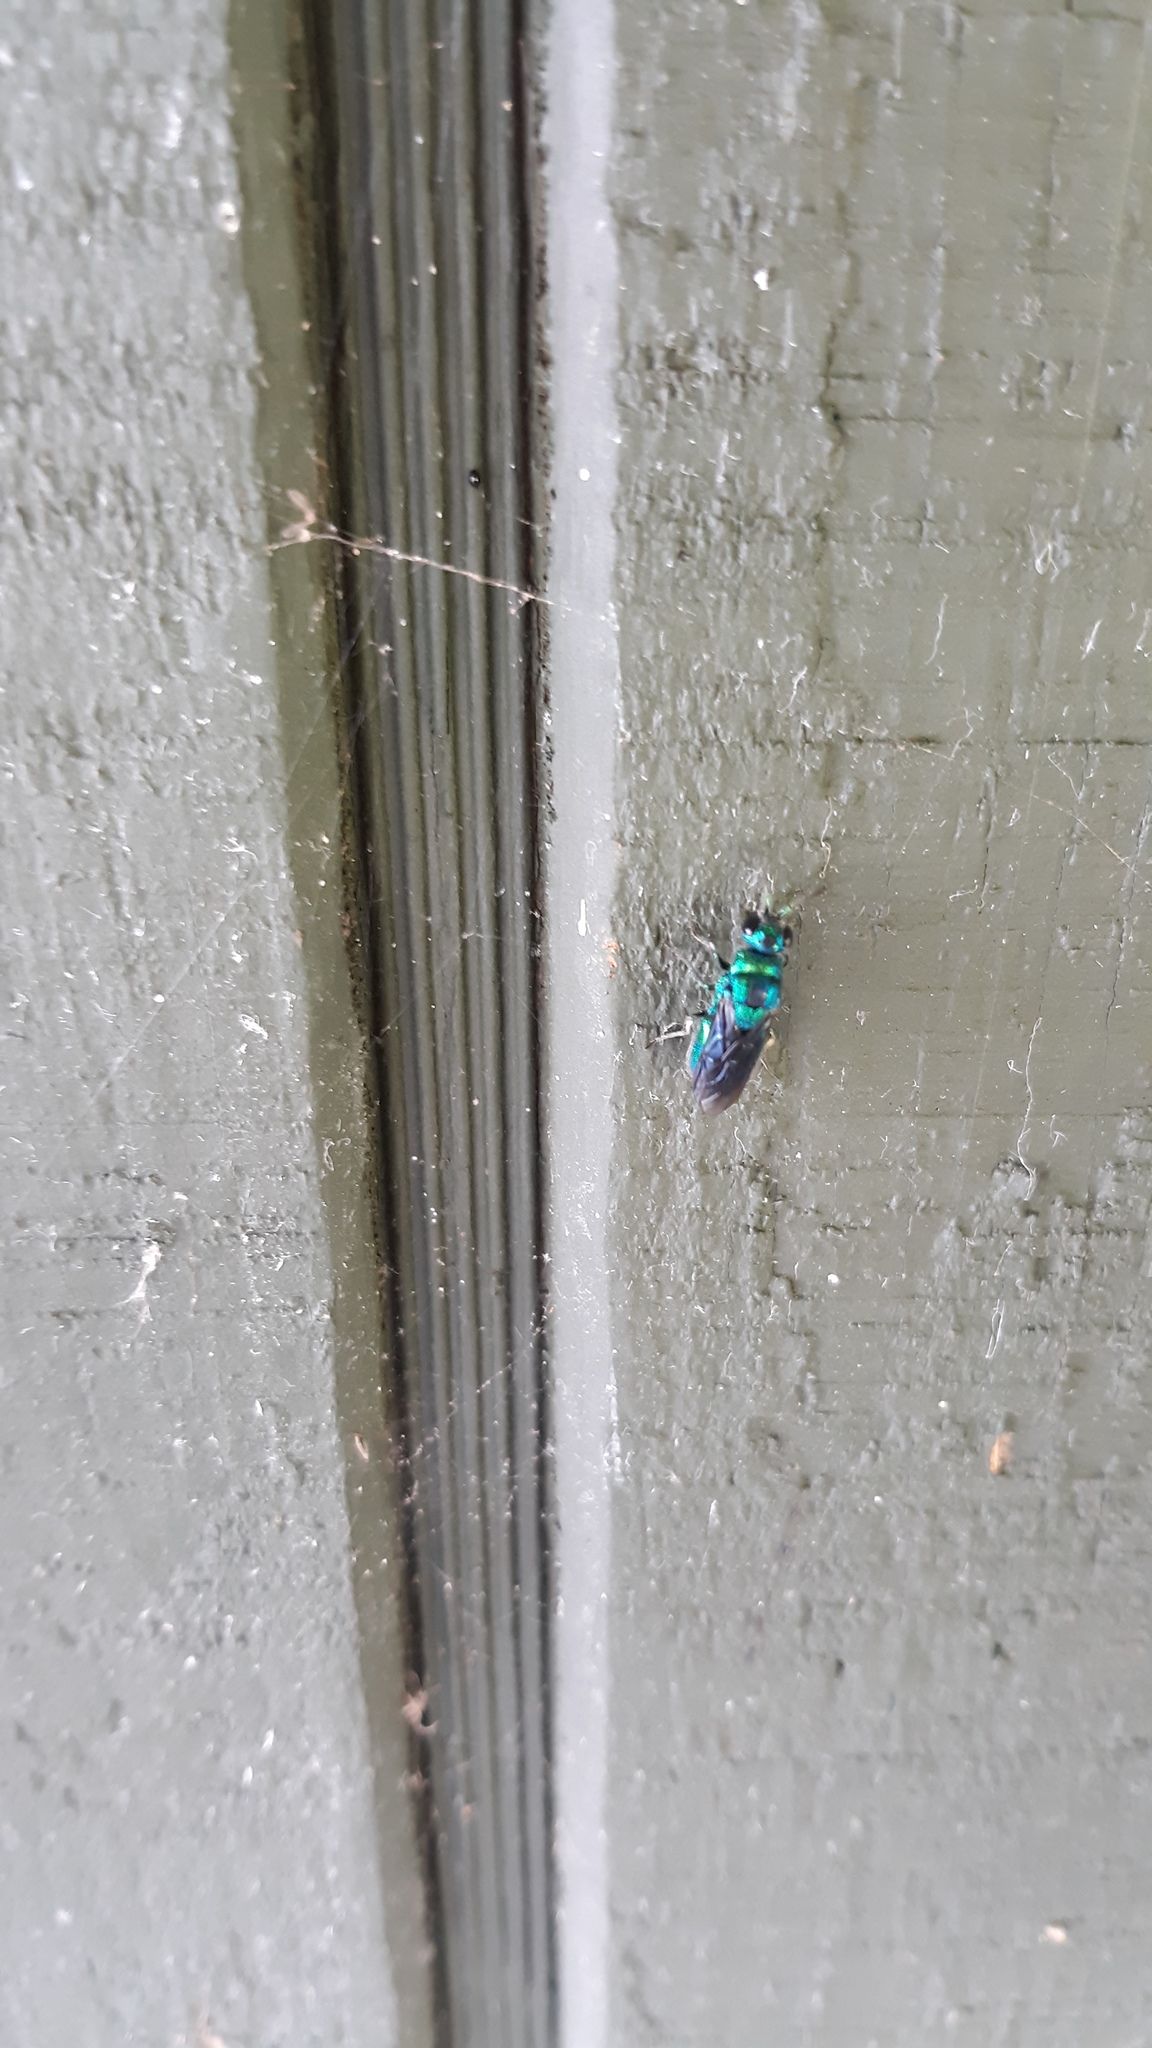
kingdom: Animalia
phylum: Arthropoda
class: Insecta
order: Hymenoptera
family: Chrysididae
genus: Chrysis
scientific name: Chrysis angolensis
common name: Cuckoo wasp
